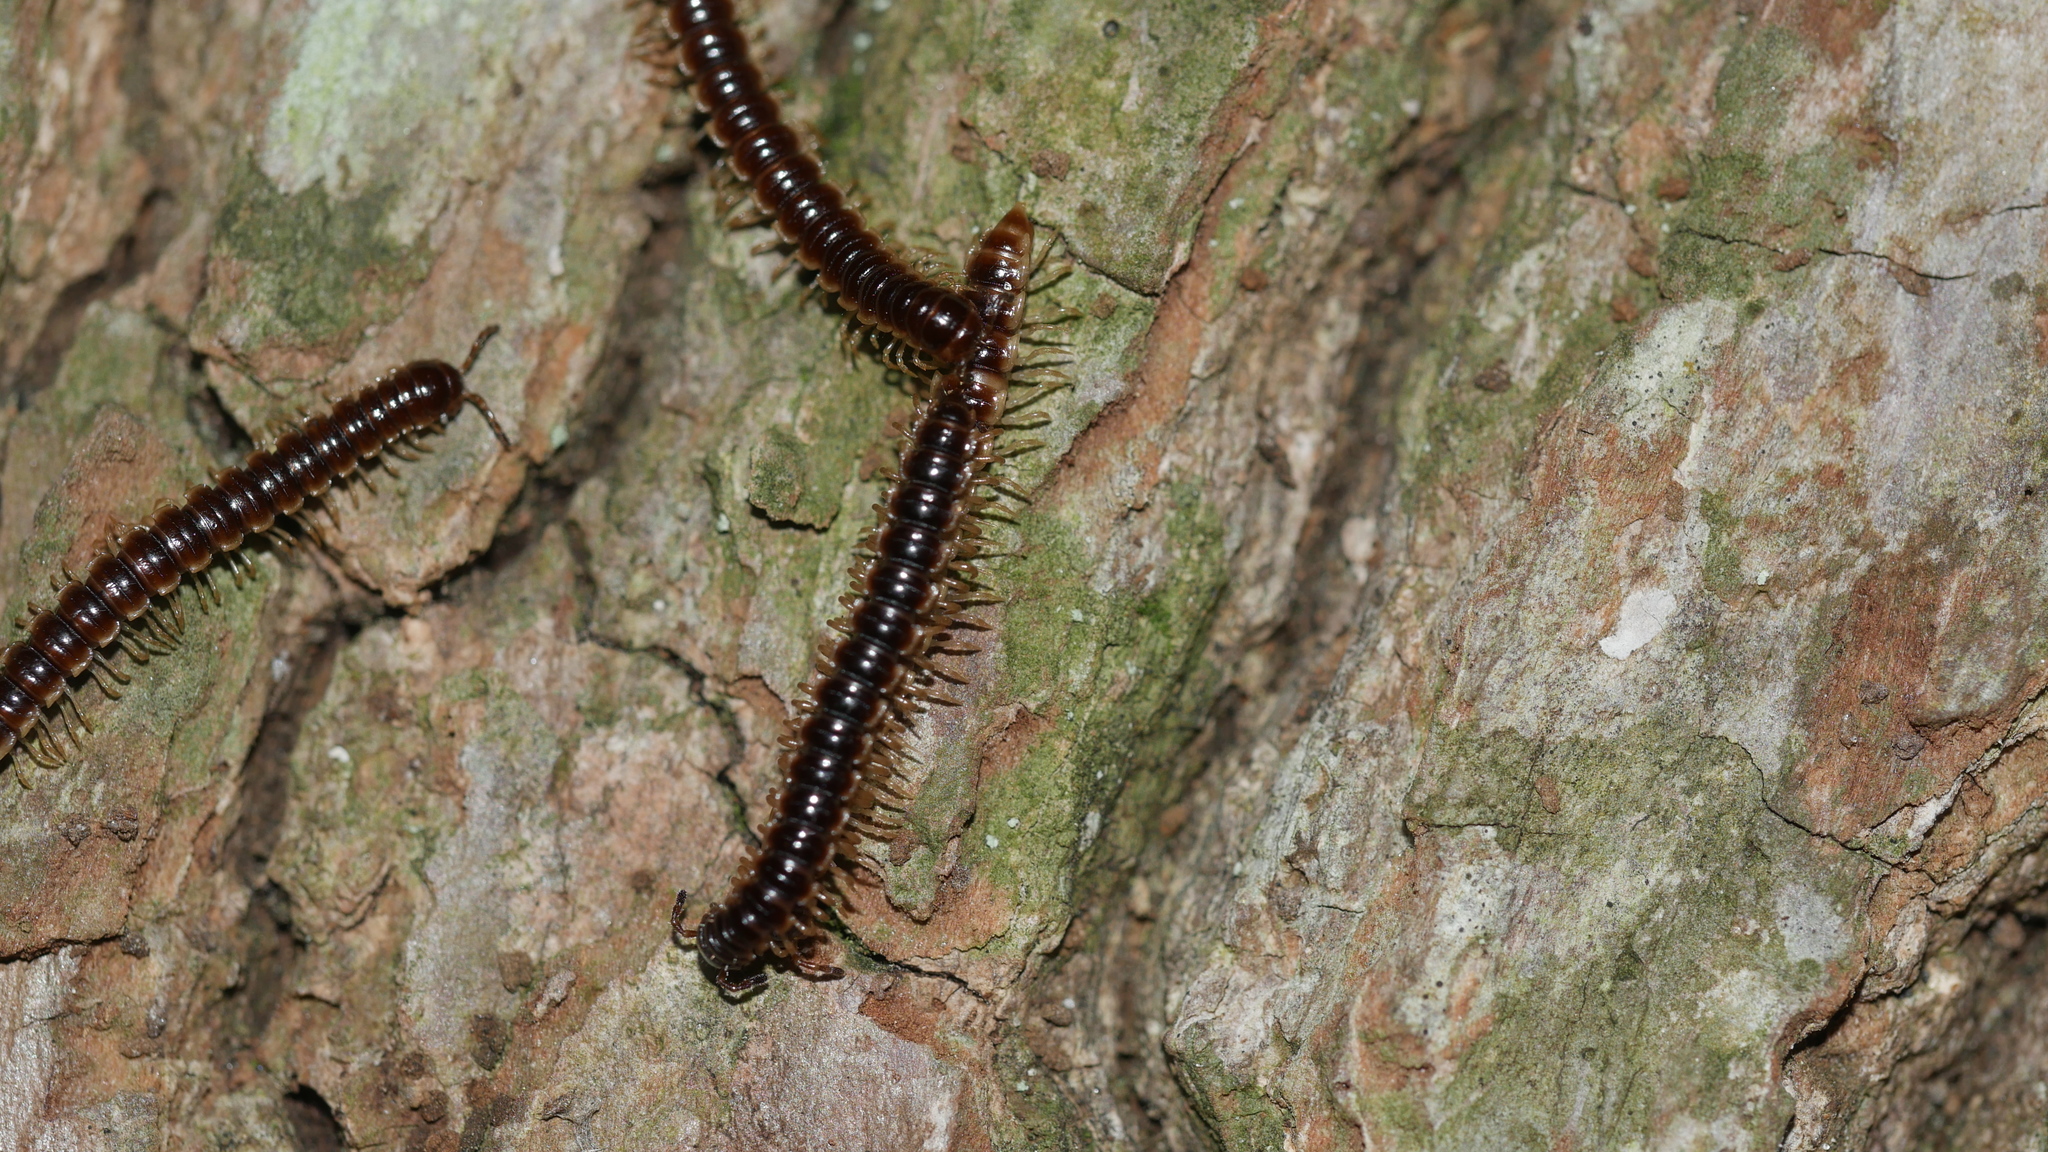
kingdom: Animalia
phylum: Arthropoda
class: Diplopoda
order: Polydesmida
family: Paradoxosomatidae
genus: Oxidus
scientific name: Oxidus gracilis
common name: Greenhouse millipede
